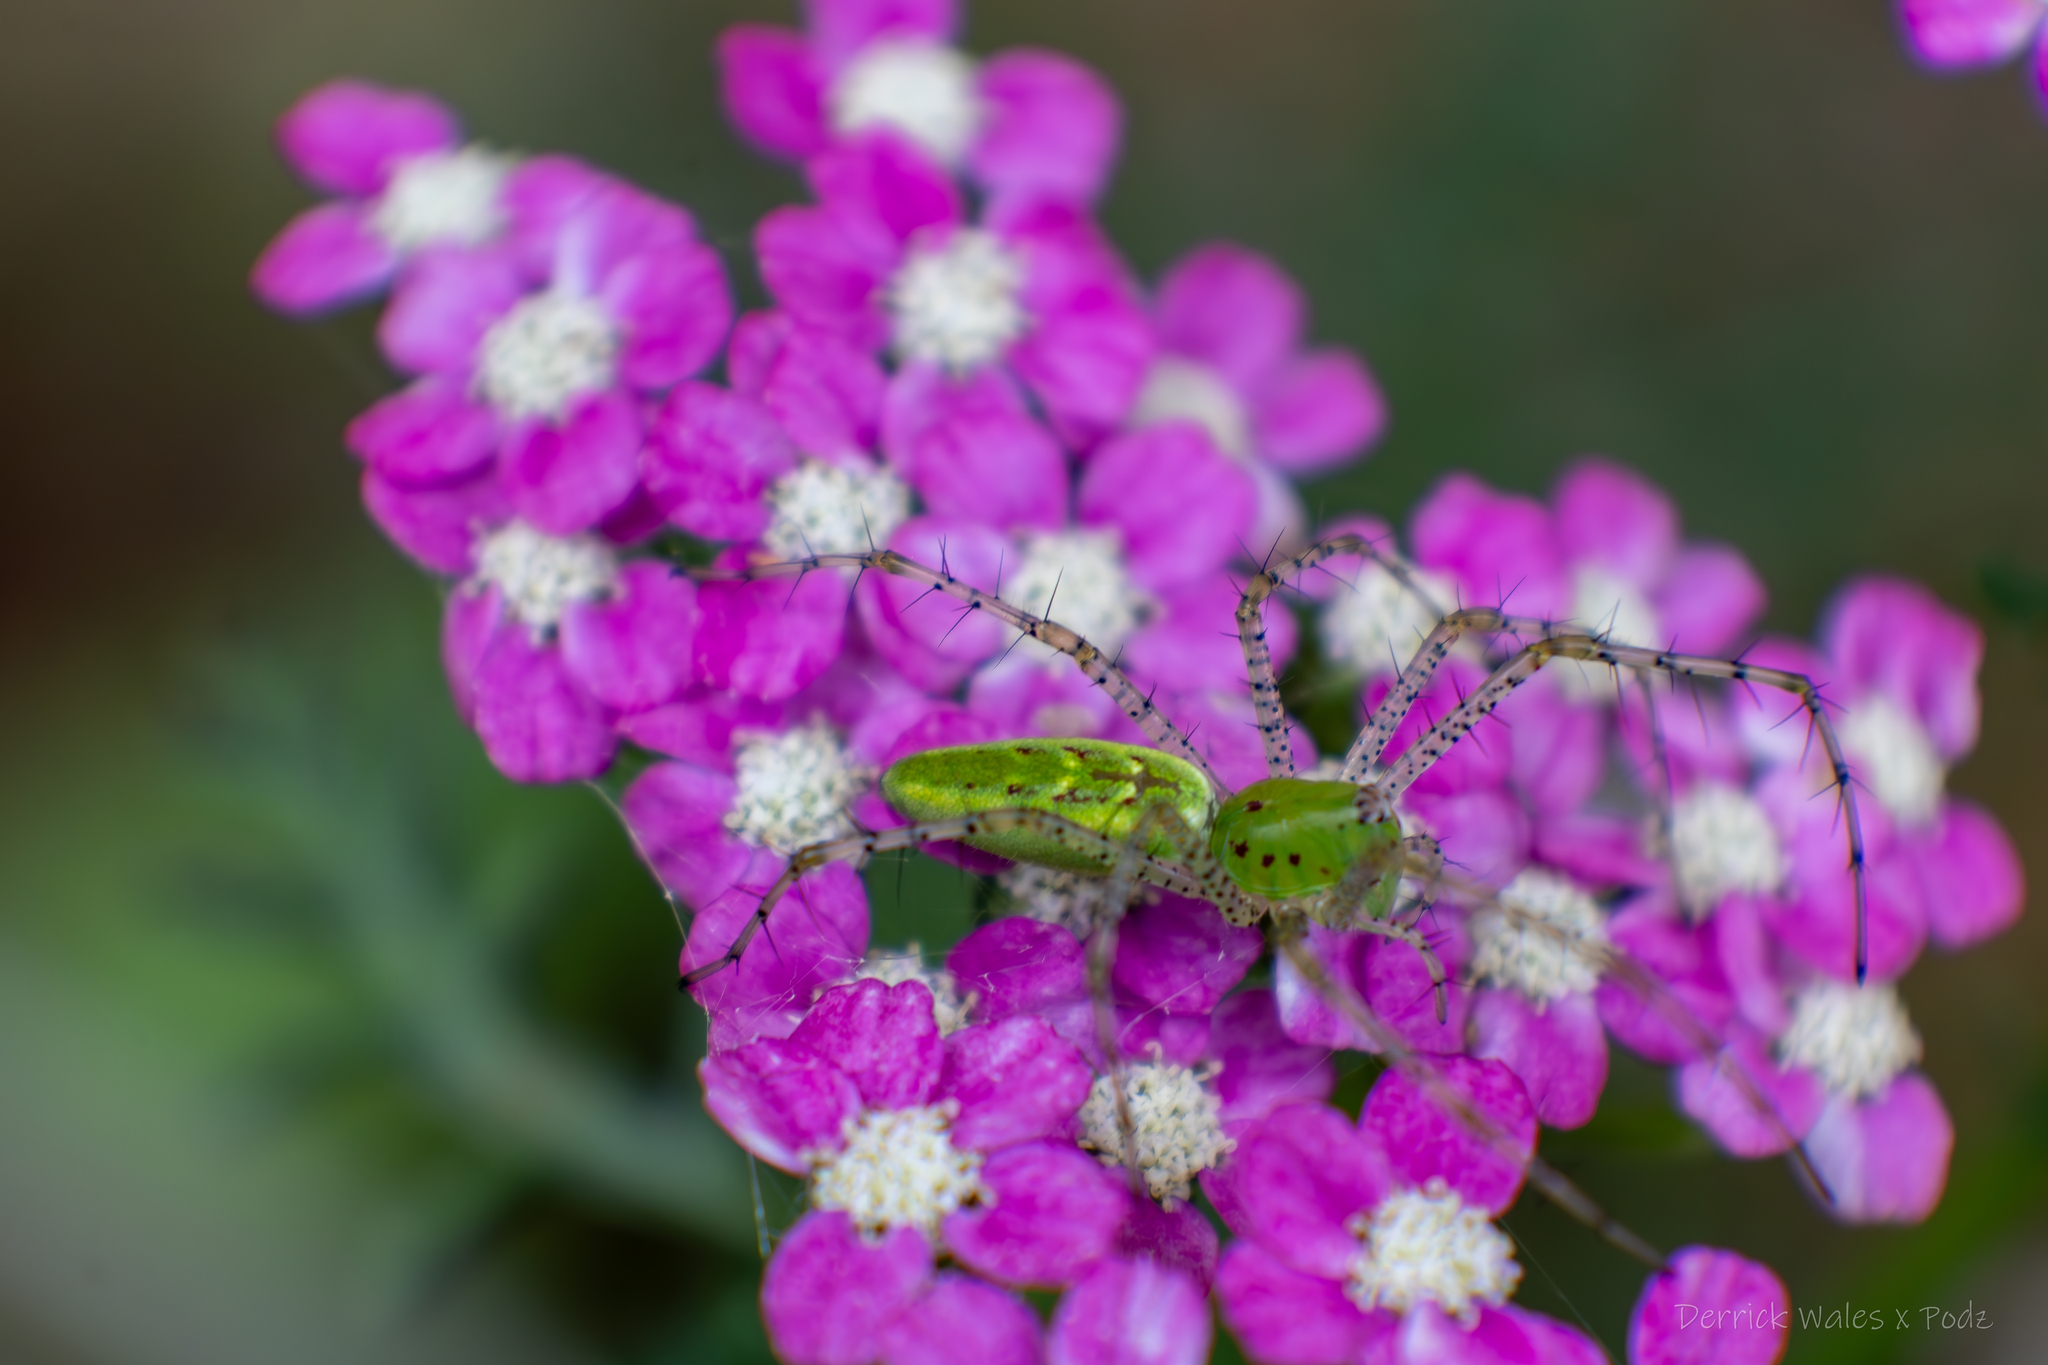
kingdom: Animalia
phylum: Arthropoda
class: Arachnida
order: Araneae
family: Oxyopidae
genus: Peucetia
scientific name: Peucetia viridans
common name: Lynx spiders
